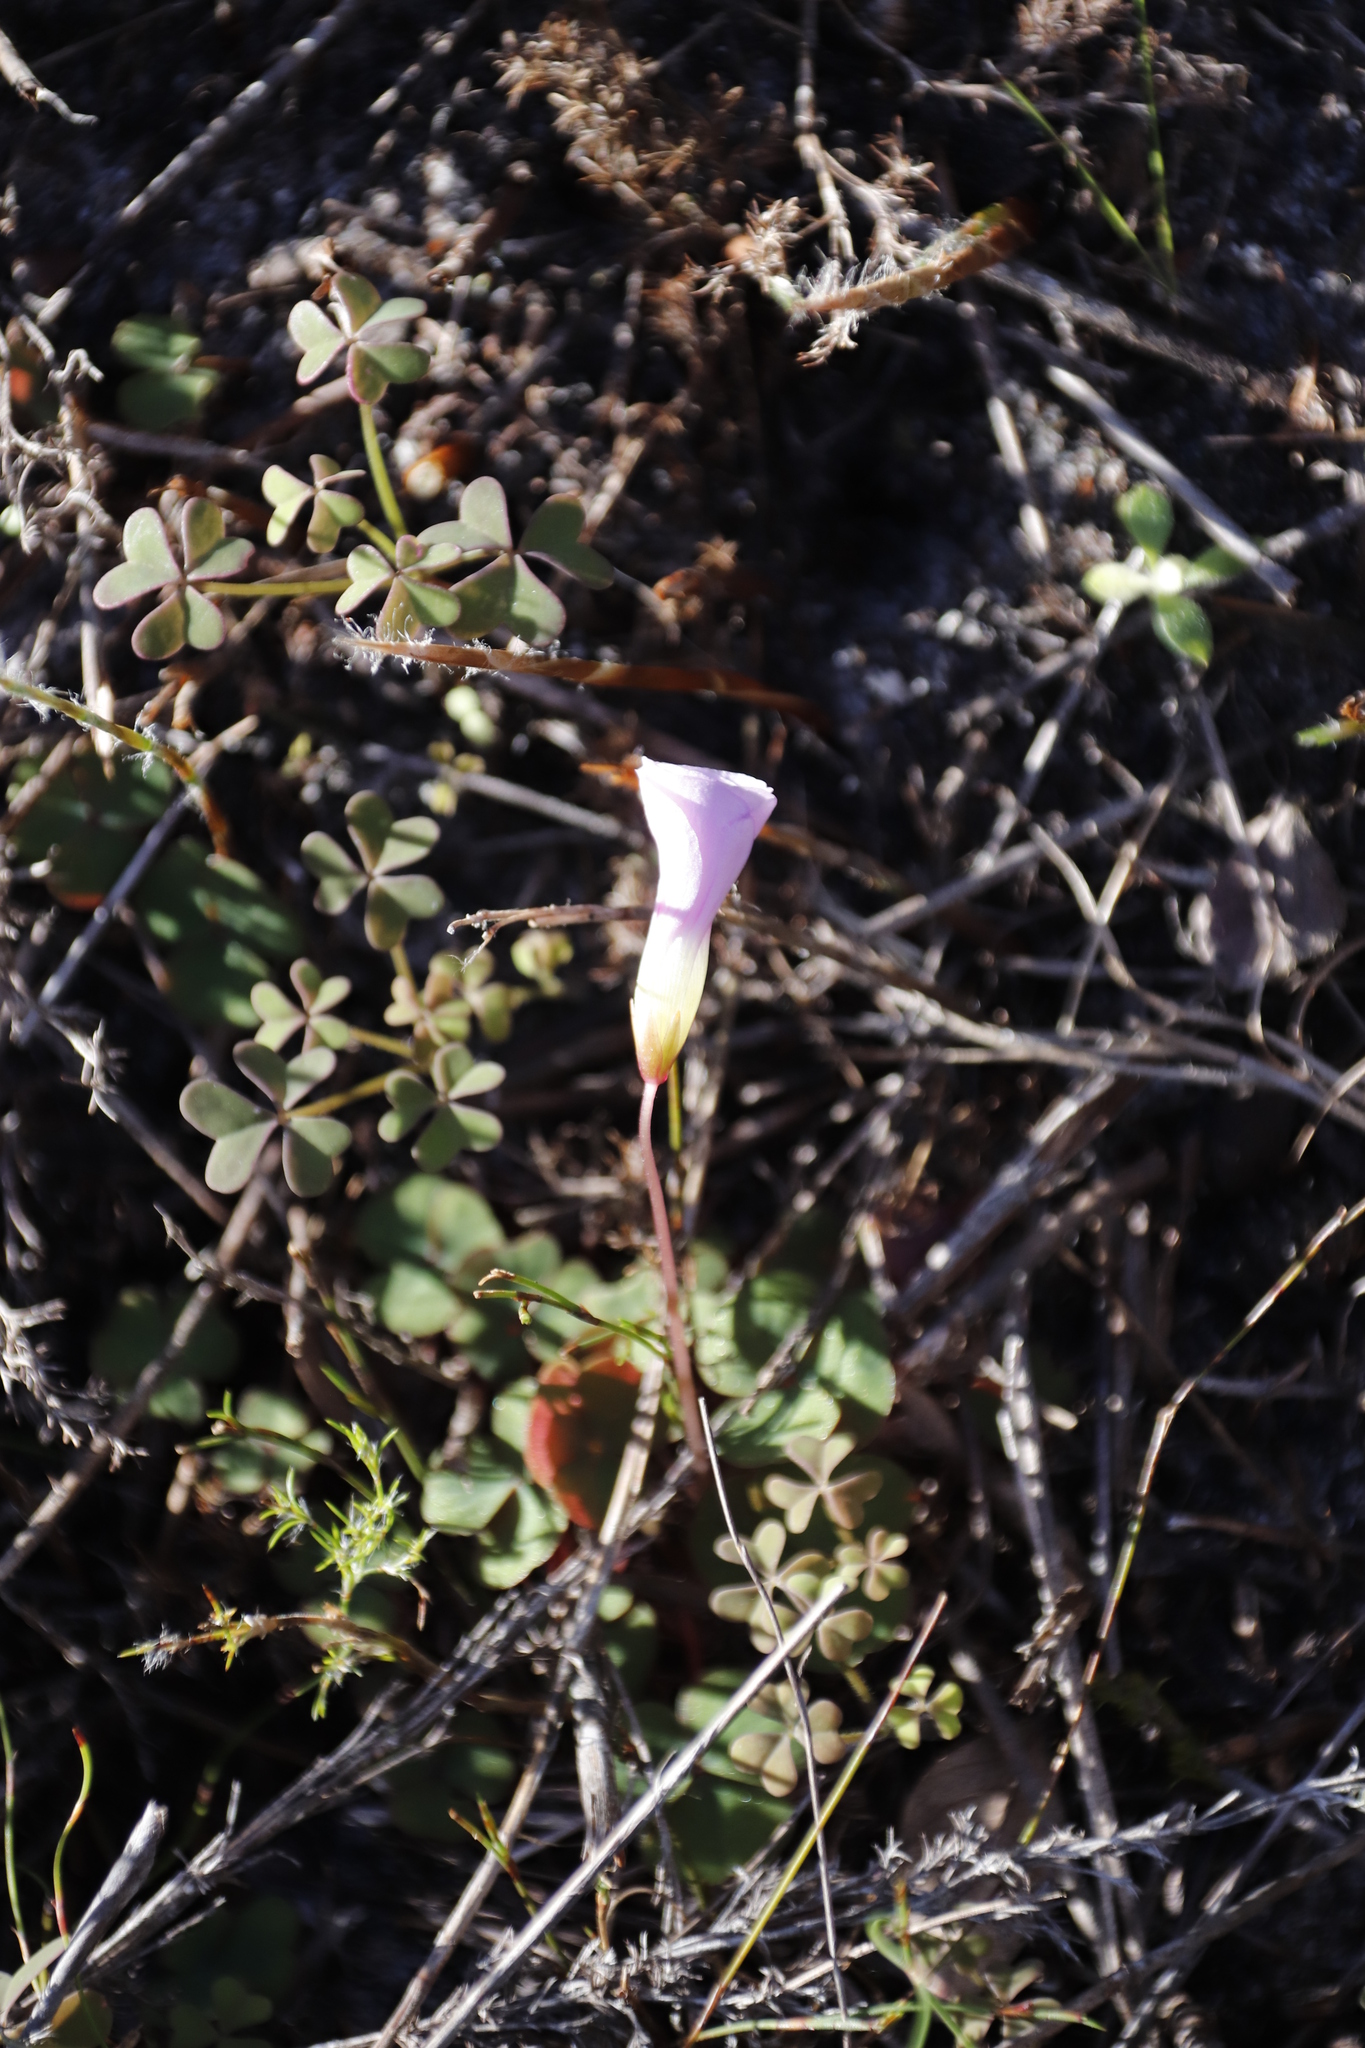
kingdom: Plantae
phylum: Tracheophyta
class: Magnoliopsida
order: Oxalidales
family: Oxalidaceae
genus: Oxalis
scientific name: Oxalis commutata
